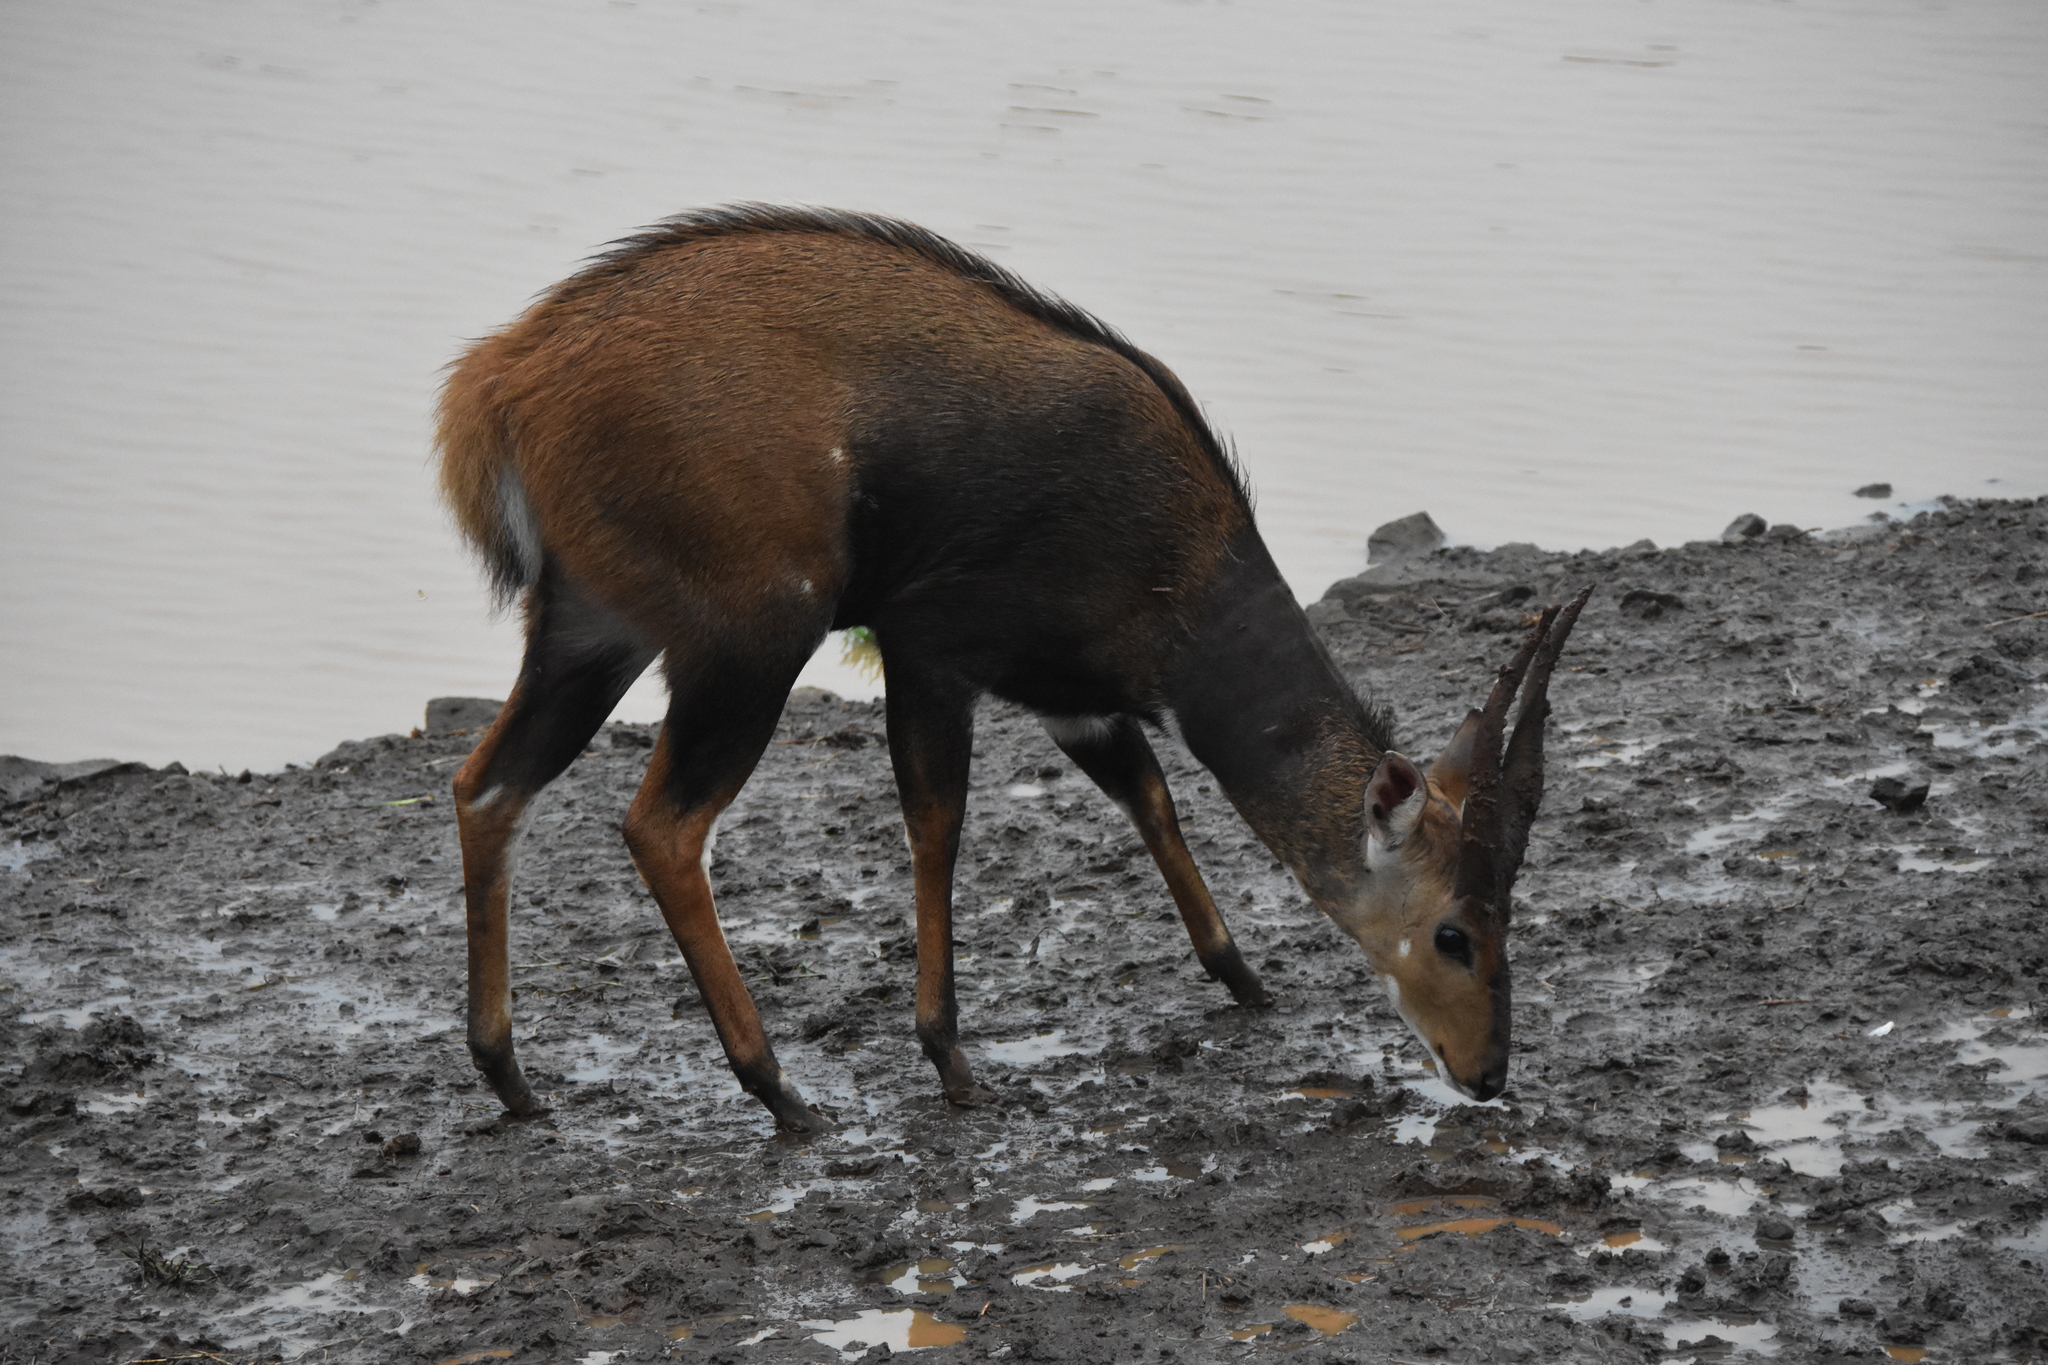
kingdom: Animalia
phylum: Chordata
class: Mammalia
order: Artiodactyla
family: Bovidae
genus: Tragelaphus
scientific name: Tragelaphus scriptus
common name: Bushbuck
